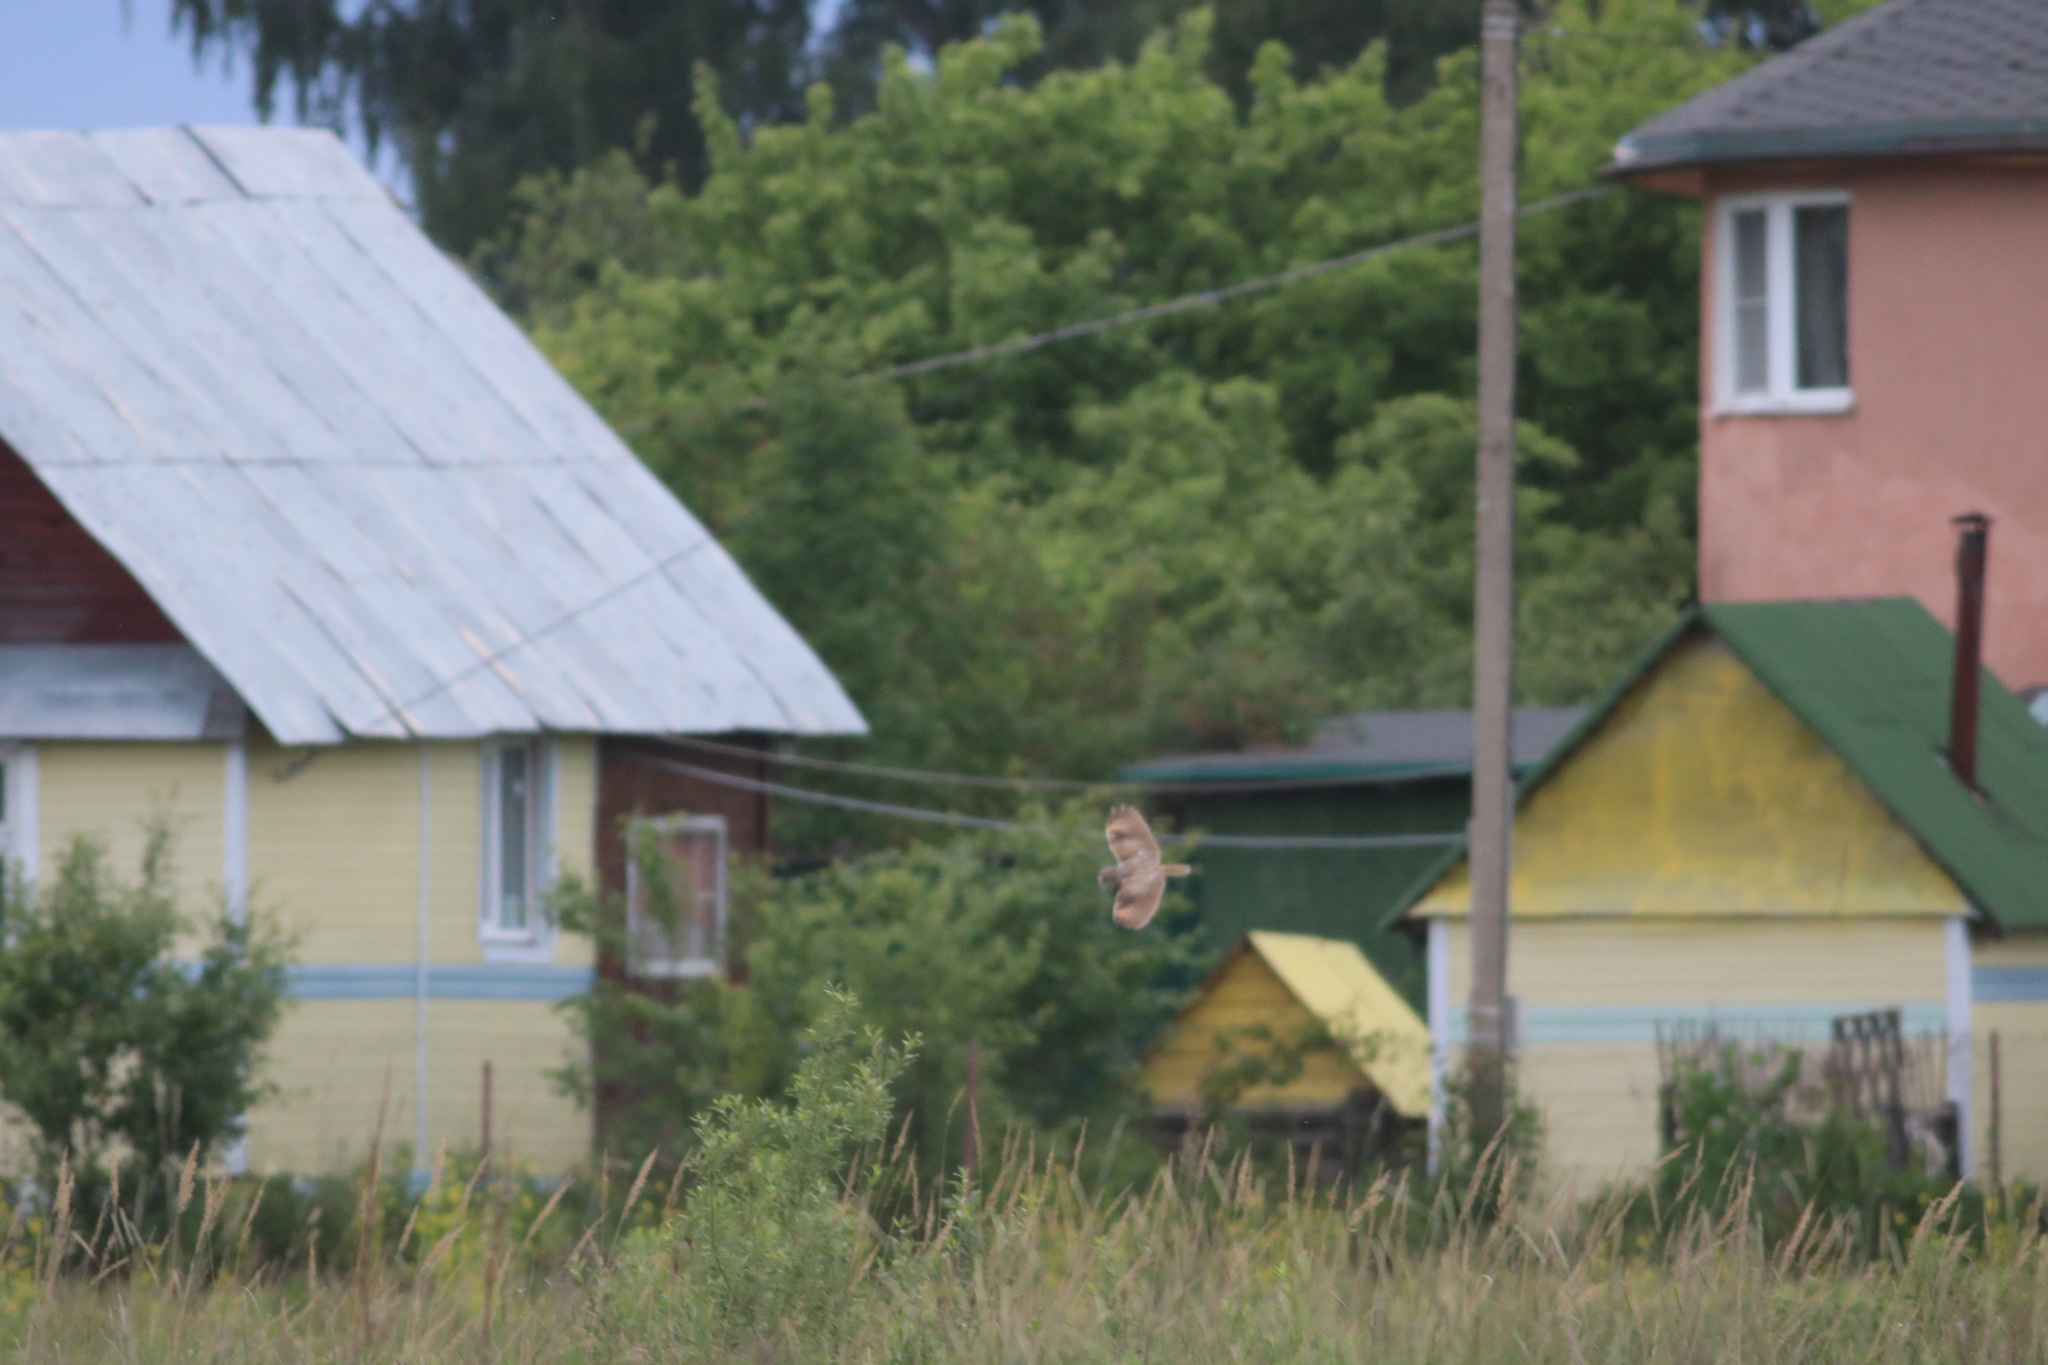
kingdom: Animalia
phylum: Chordata
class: Aves
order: Strigiformes
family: Strigidae
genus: Asio
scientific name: Asio flammeus
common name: Short-eared owl
